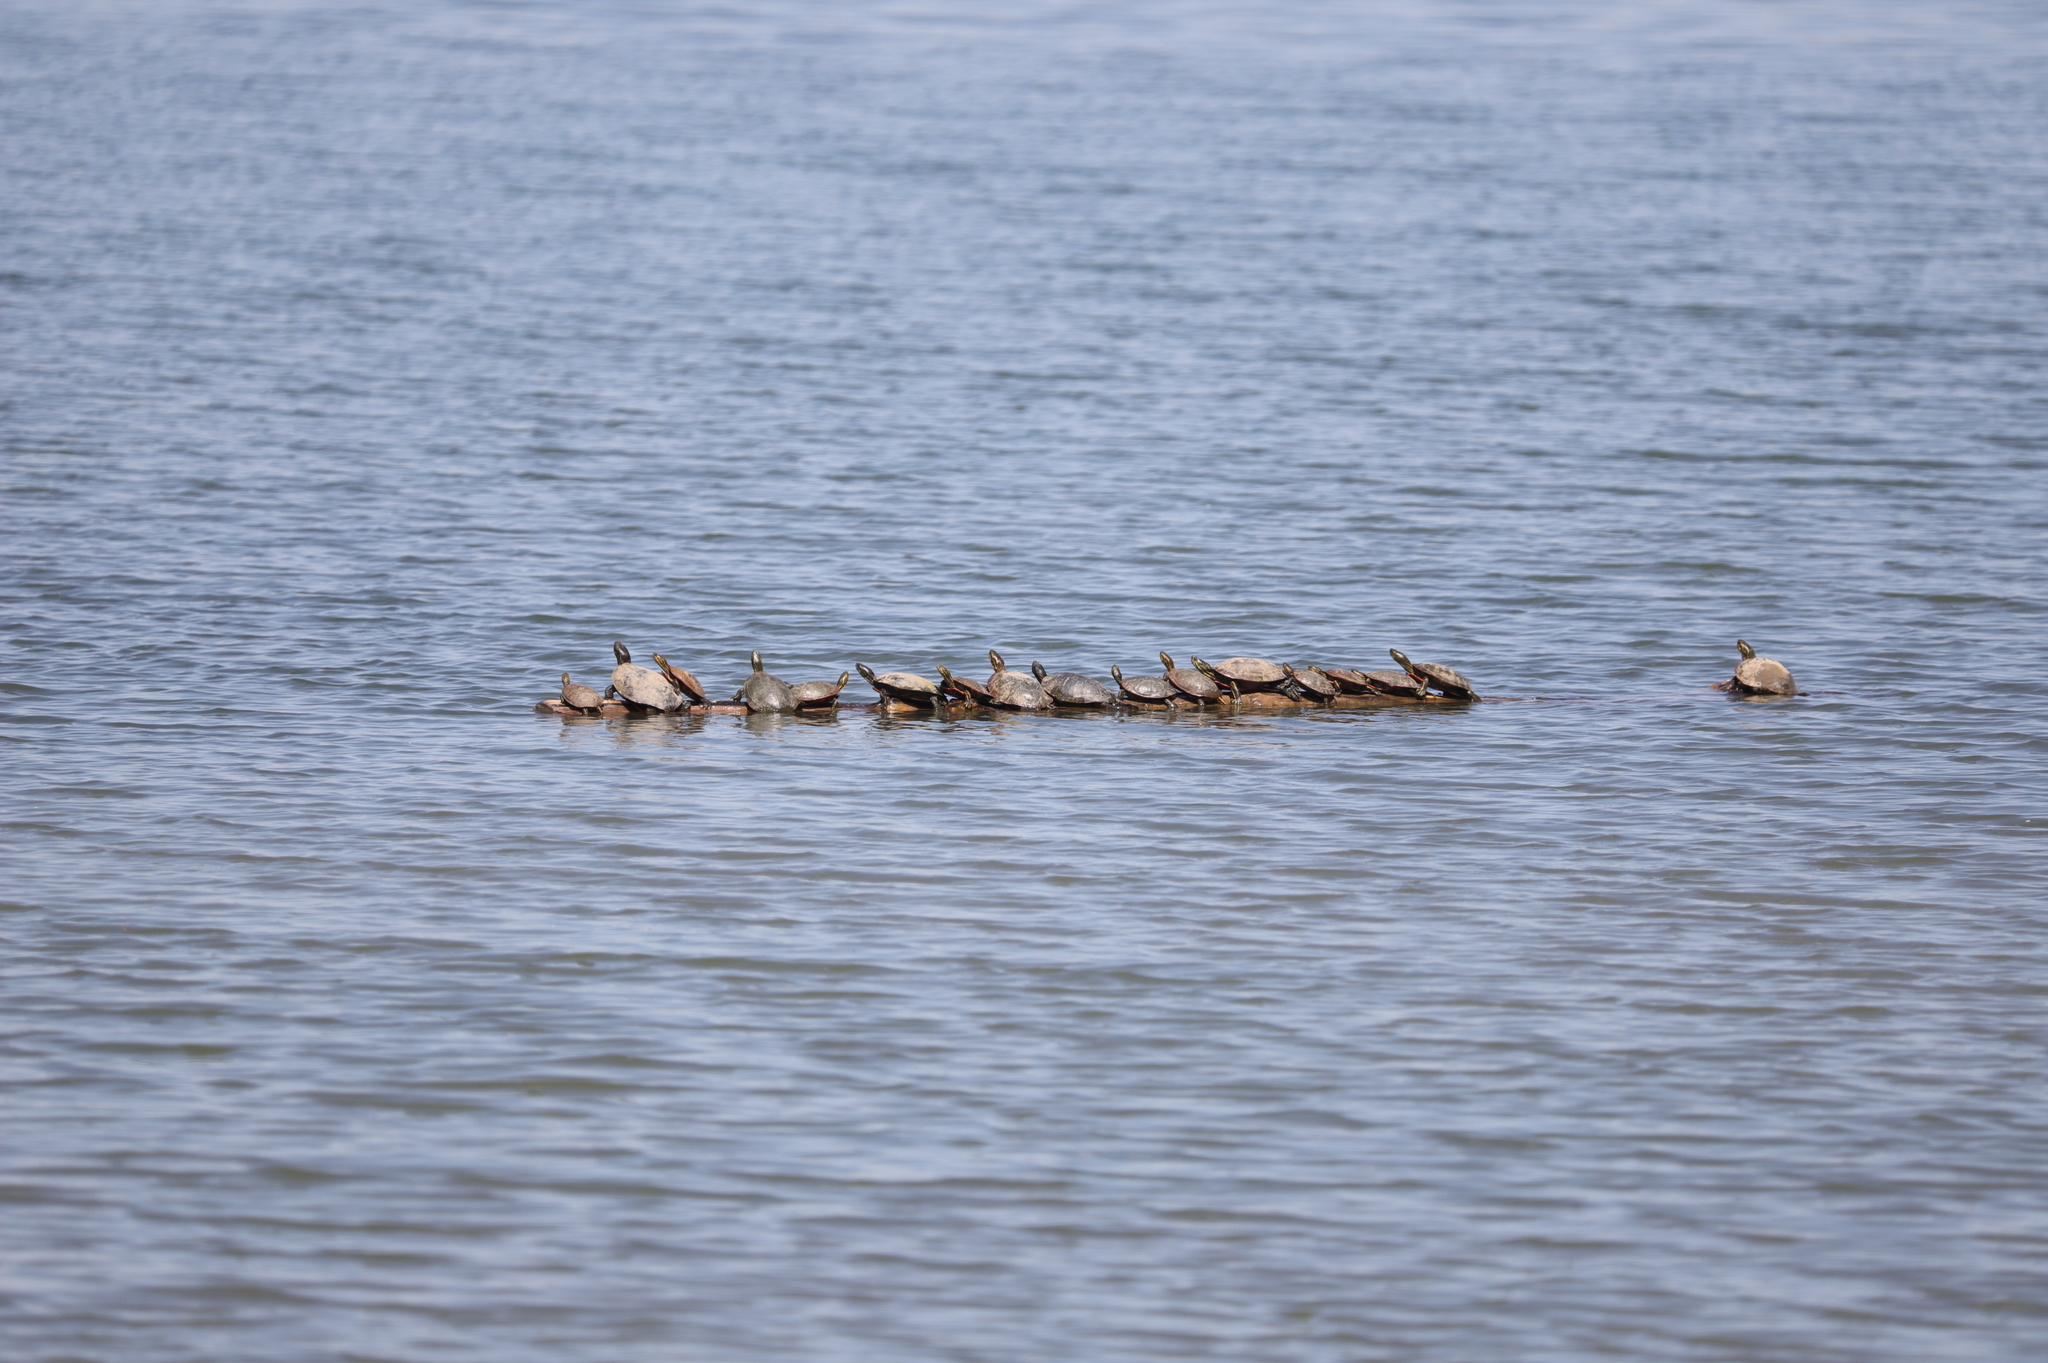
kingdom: Animalia
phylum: Chordata
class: Testudines
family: Emydidae
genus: Chrysemys
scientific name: Chrysemys picta
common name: Painted turtle
